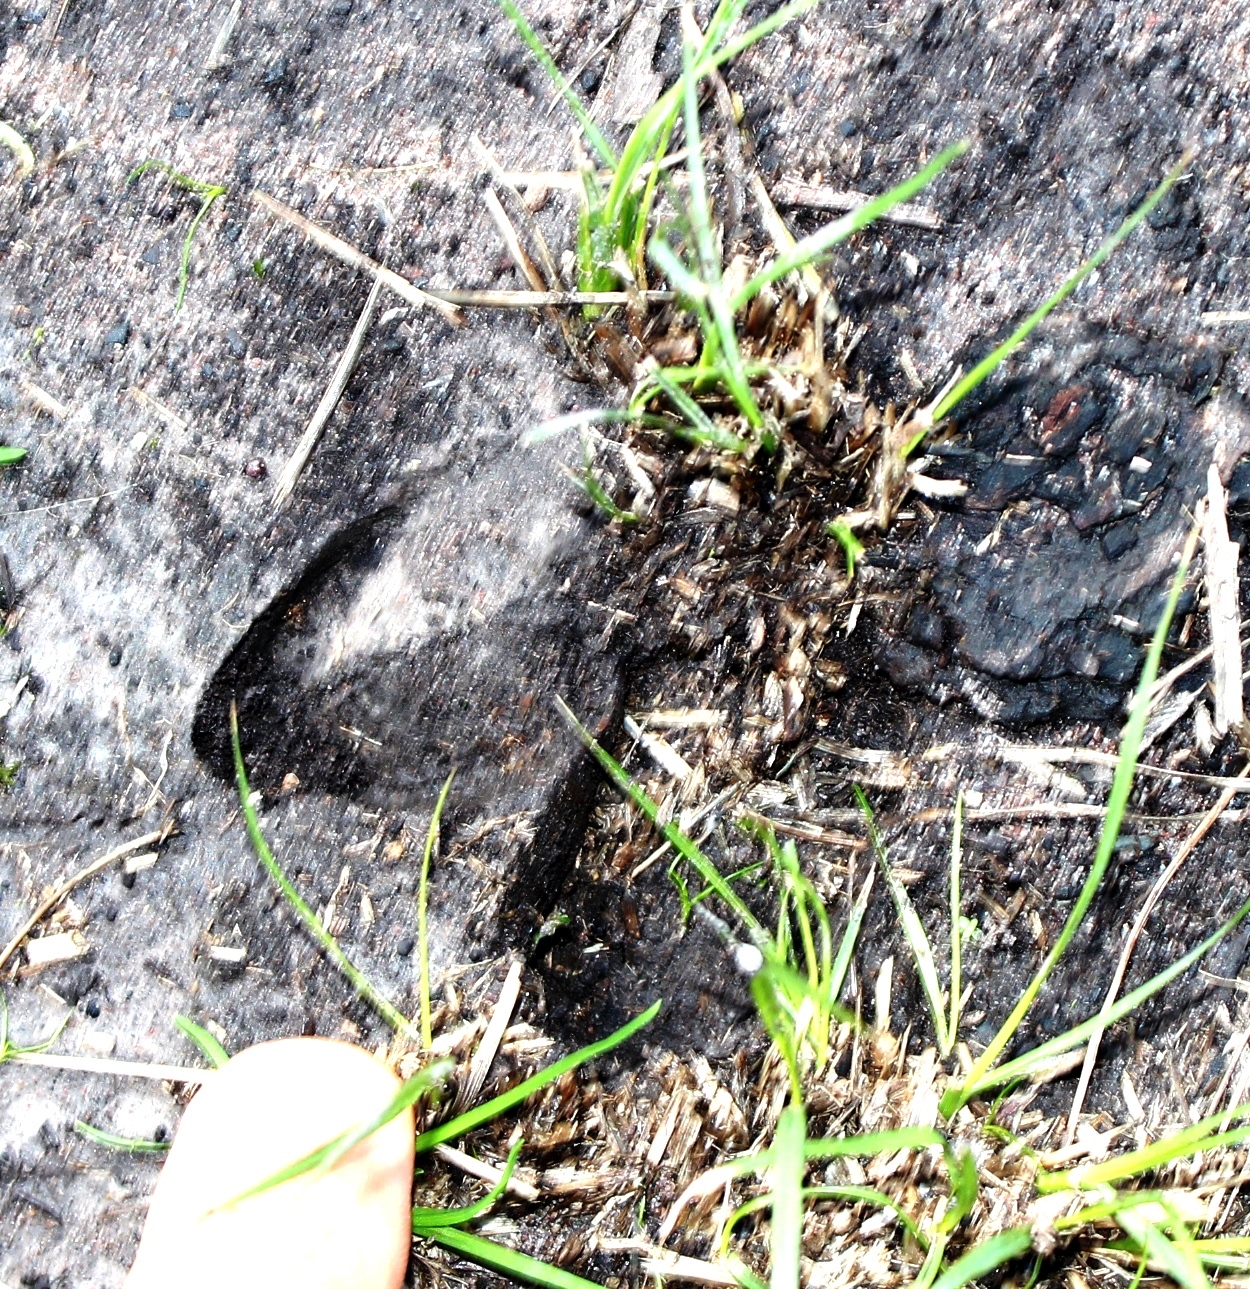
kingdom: Animalia
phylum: Chordata
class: Mammalia
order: Artiodactyla
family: Bovidae
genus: Tragelaphus
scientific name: Tragelaphus scriptus
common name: Bushbuck
